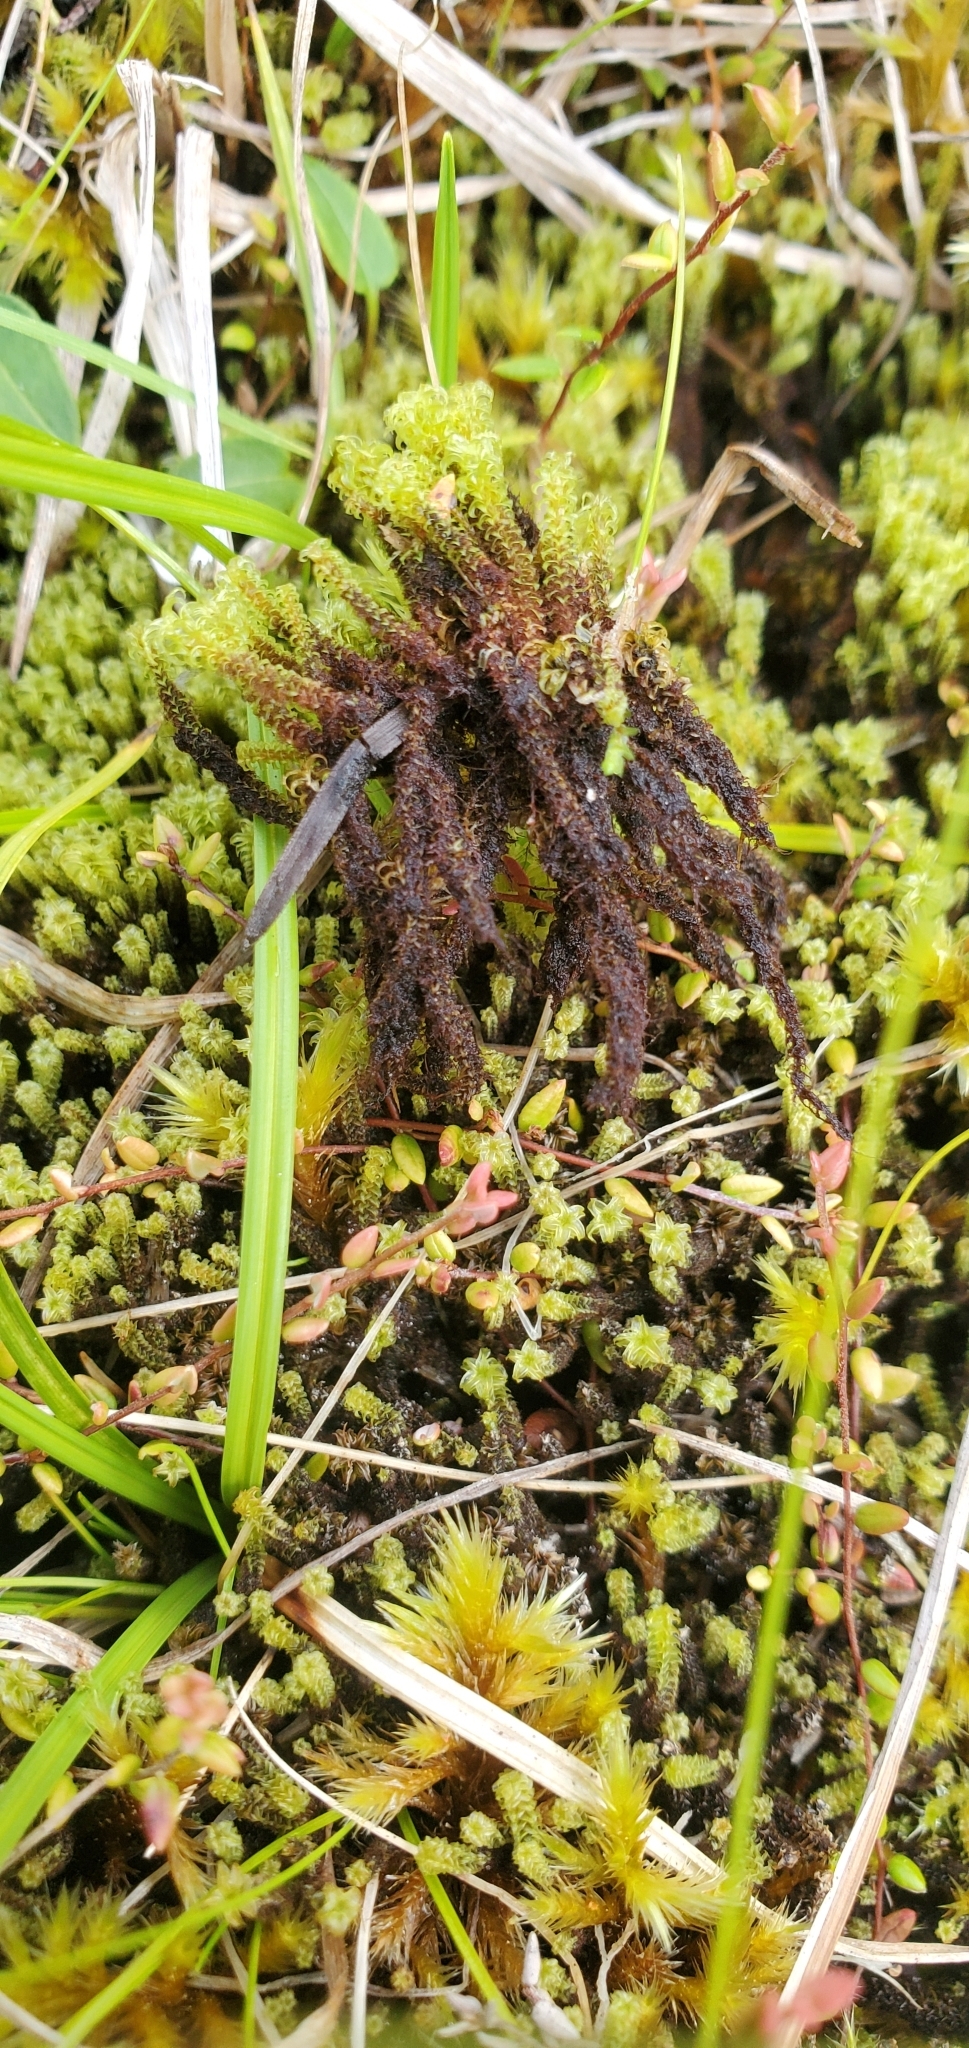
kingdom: Plantae
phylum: Bryophyta
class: Bryopsida
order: Splachnales
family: Meesiaceae
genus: Paludella
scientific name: Paludella squarrosa
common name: Tufted fen moss
